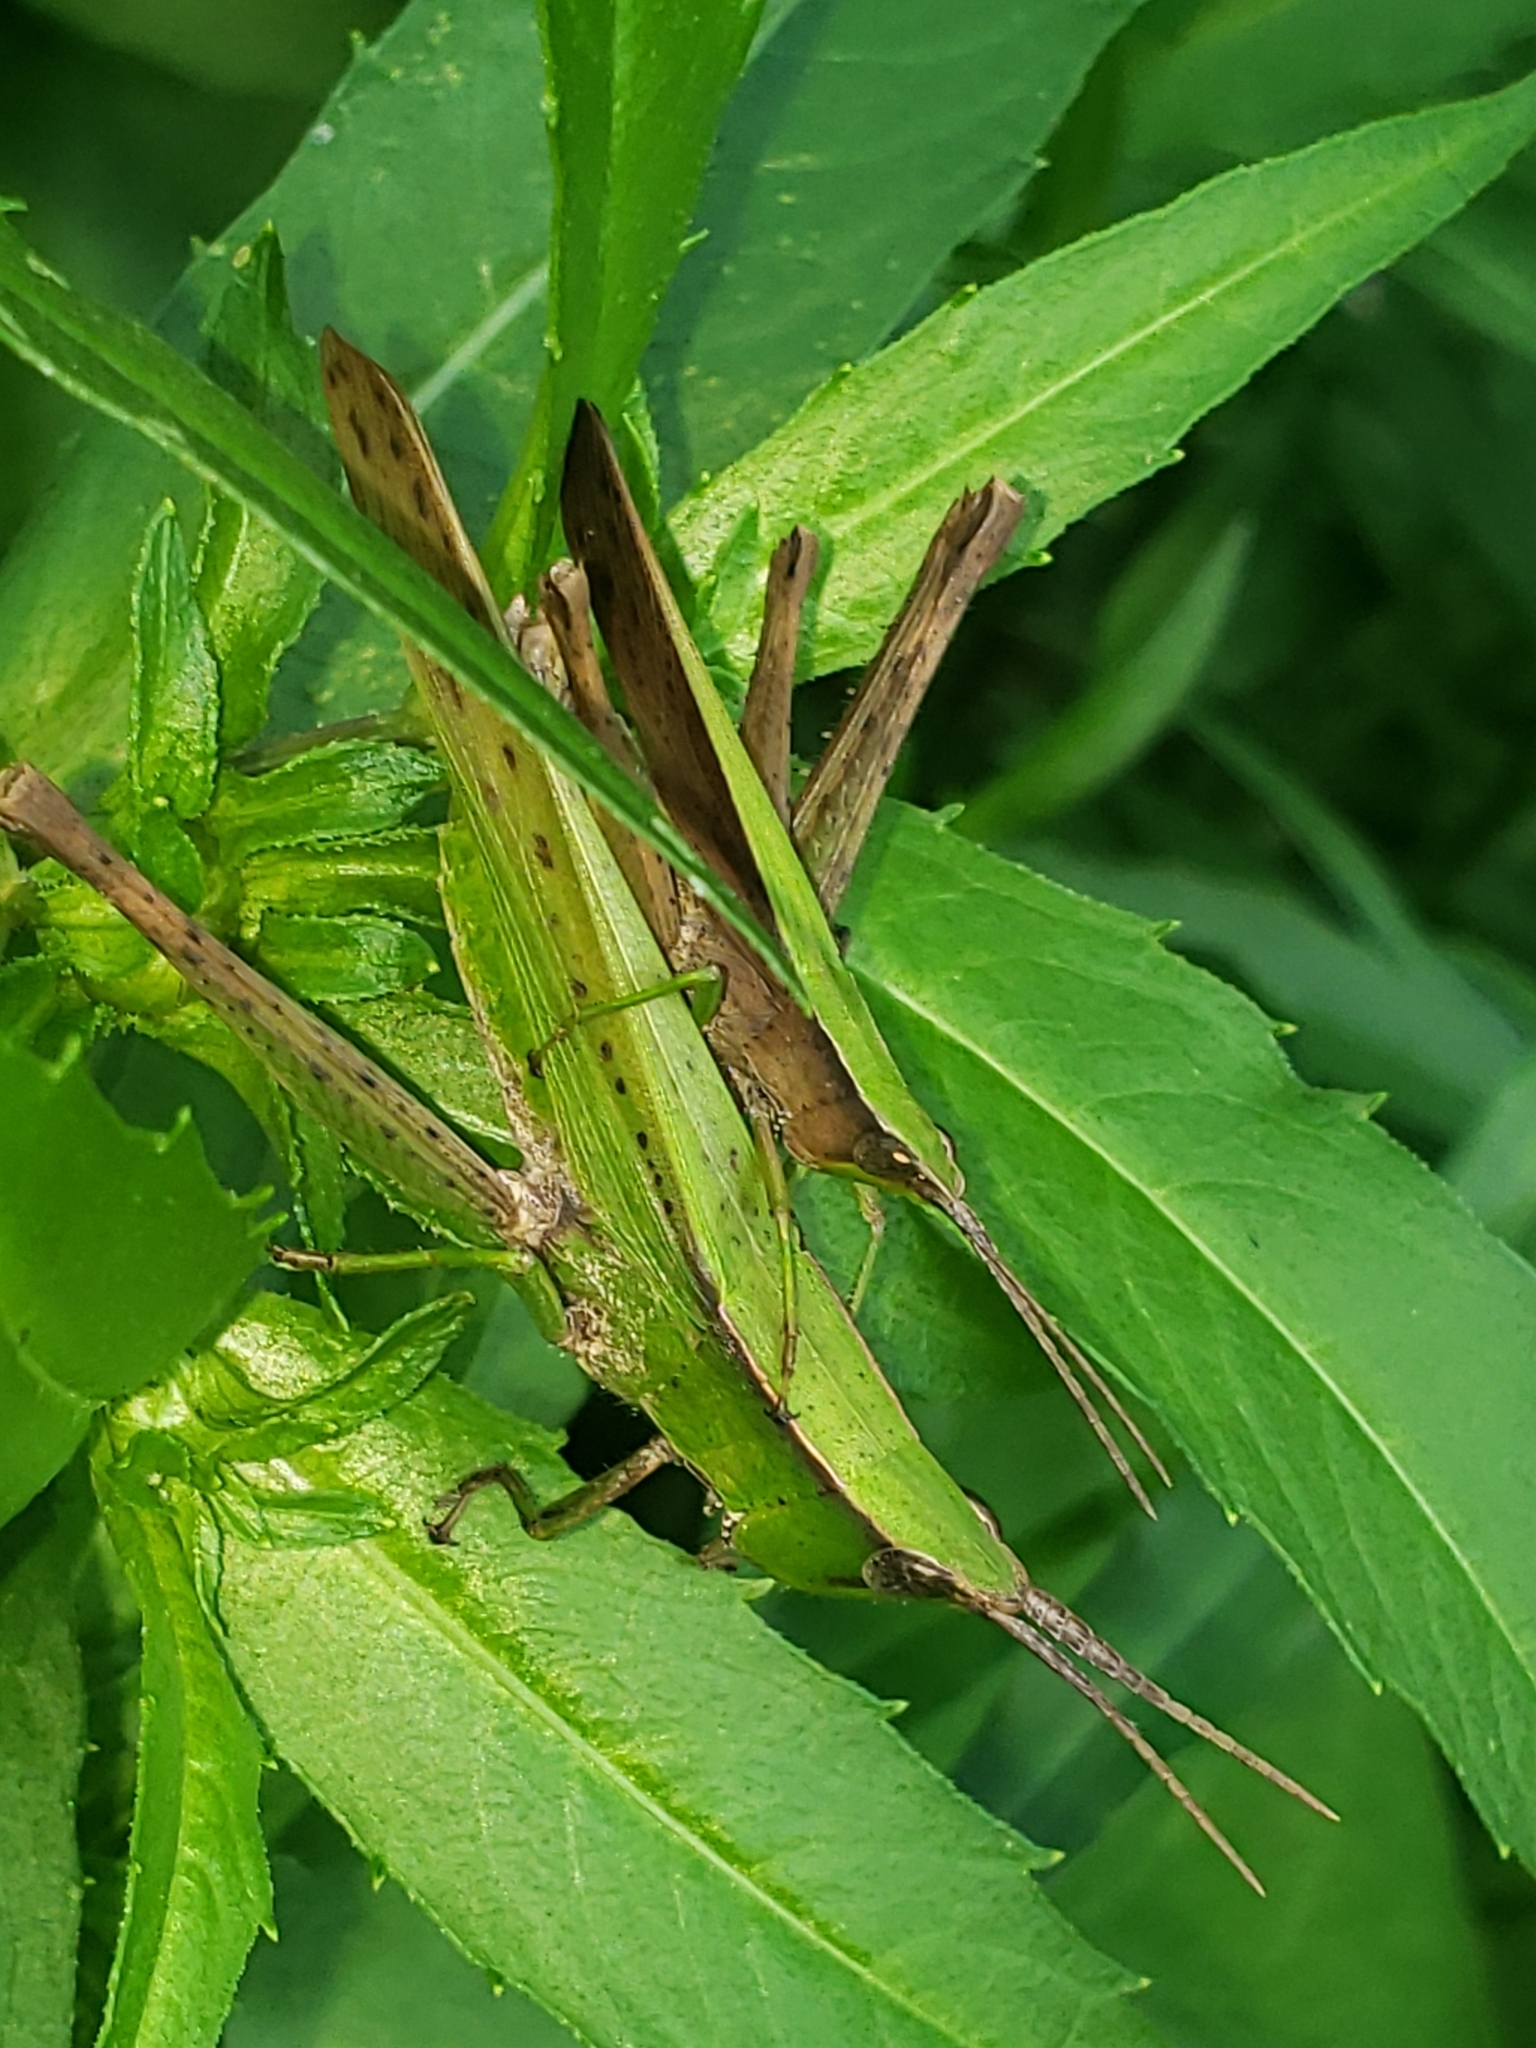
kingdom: Animalia
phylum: Arthropoda
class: Insecta
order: Orthoptera
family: Acrididae
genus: Metaleptea
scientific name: Metaleptea brevicornis
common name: Clipped-wing grasshopper
